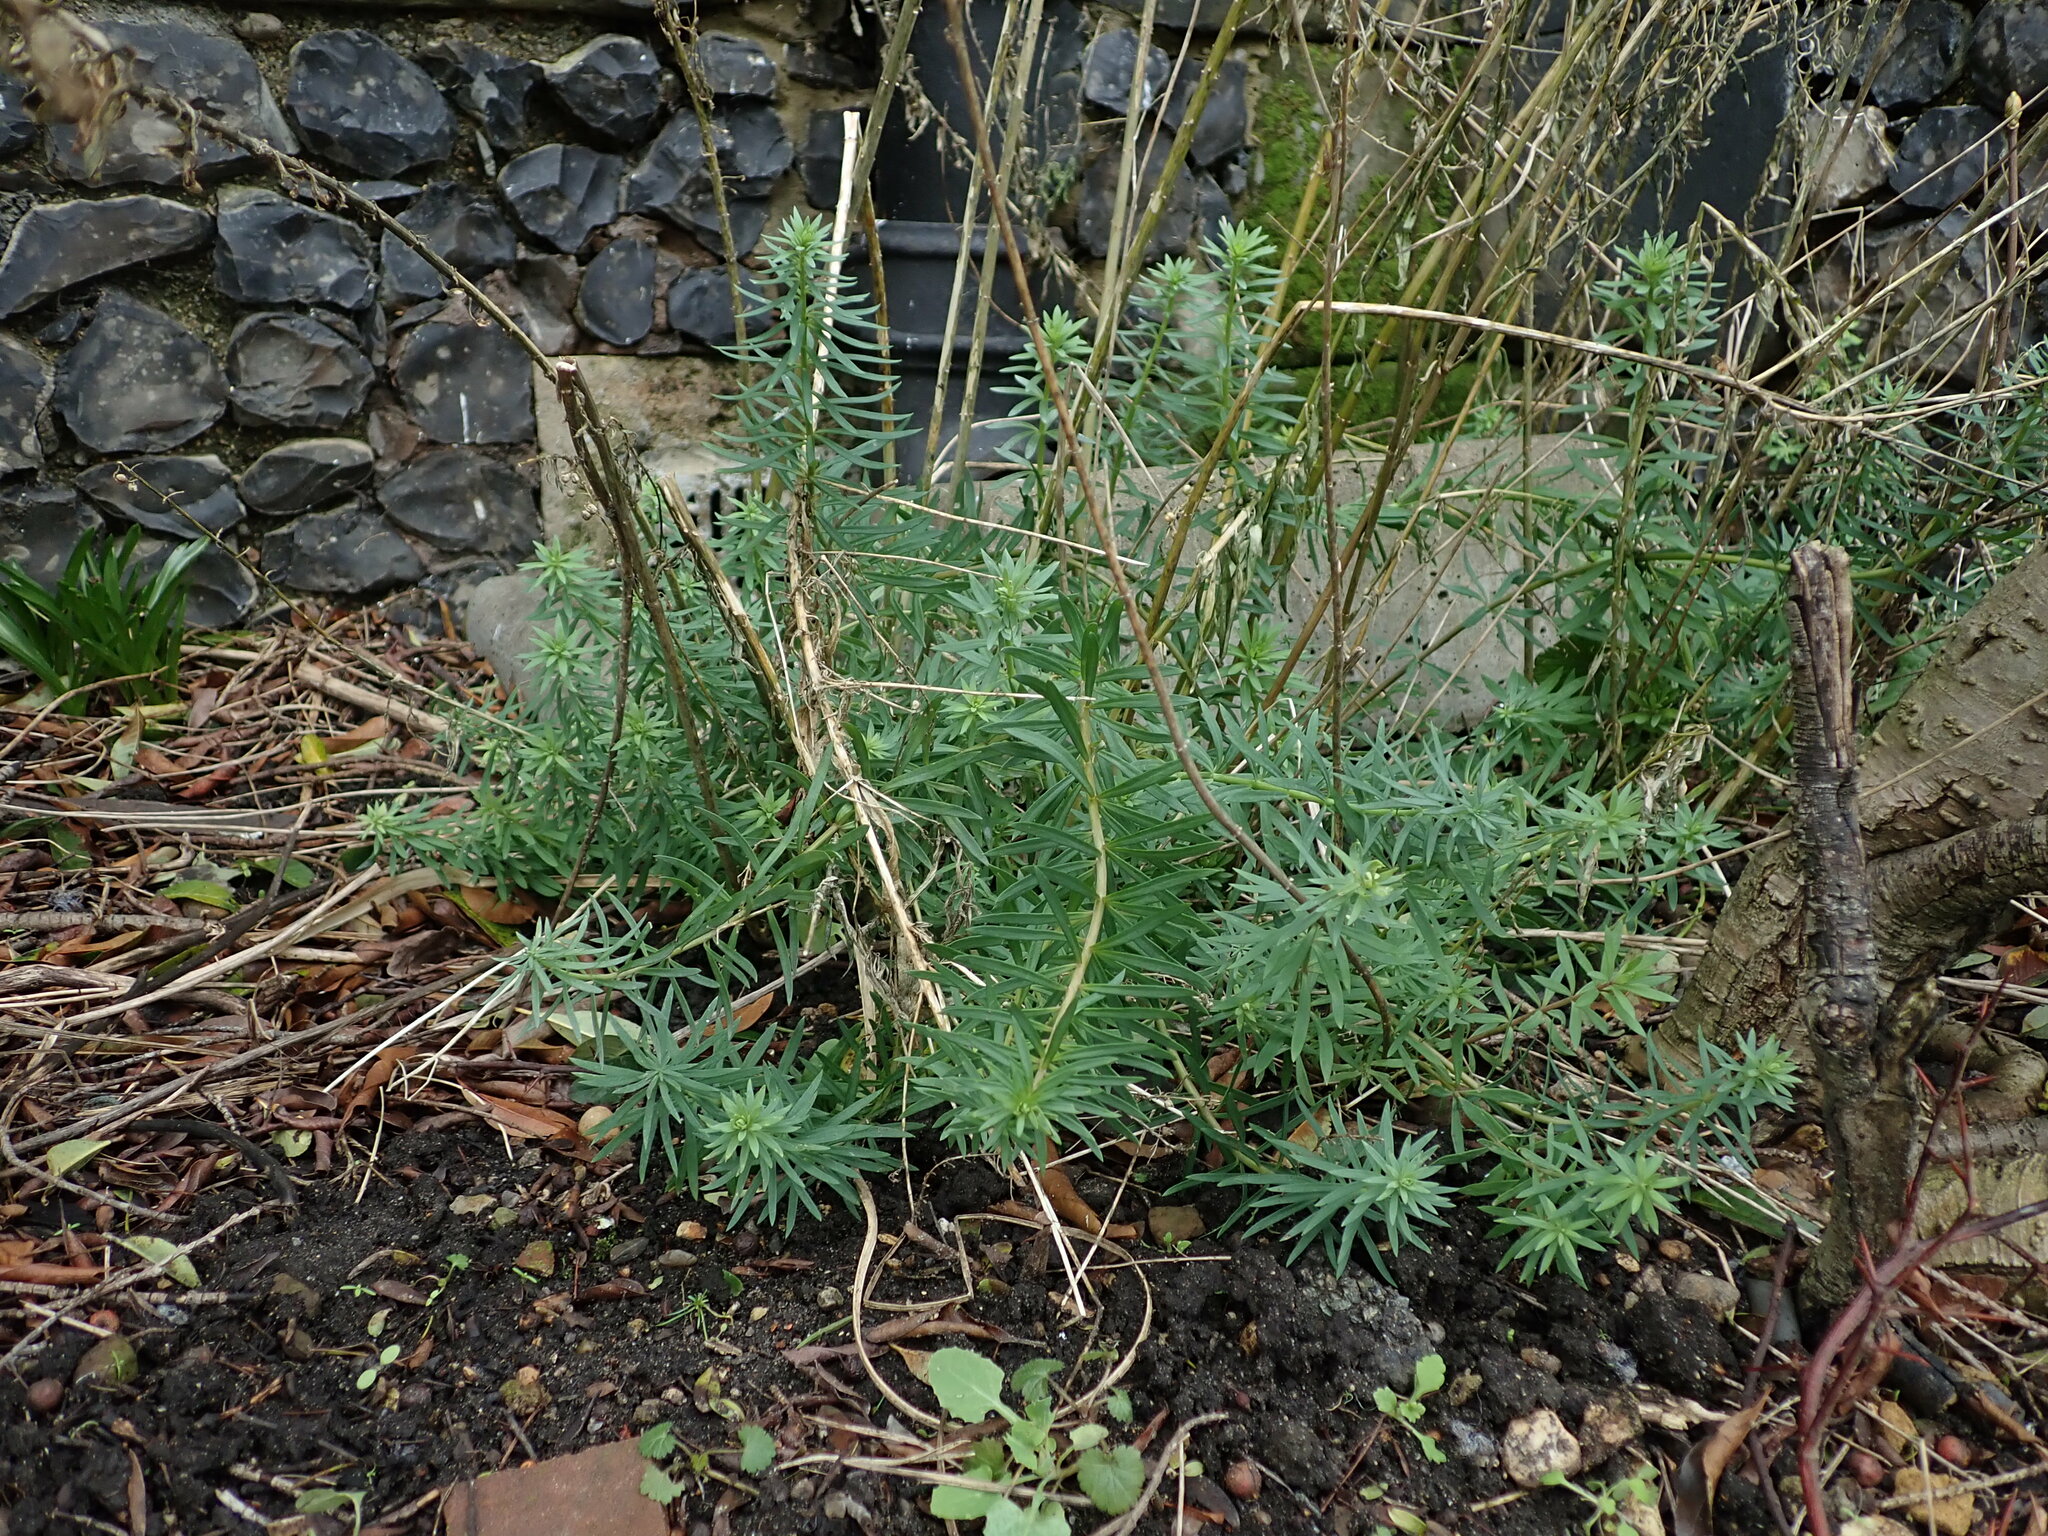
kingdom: Plantae
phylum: Tracheophyta
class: Magnoliopsida
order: Lamiales
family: Plantaginaceae
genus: Linaria
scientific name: Linaria purpurea
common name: Purple toadflax
